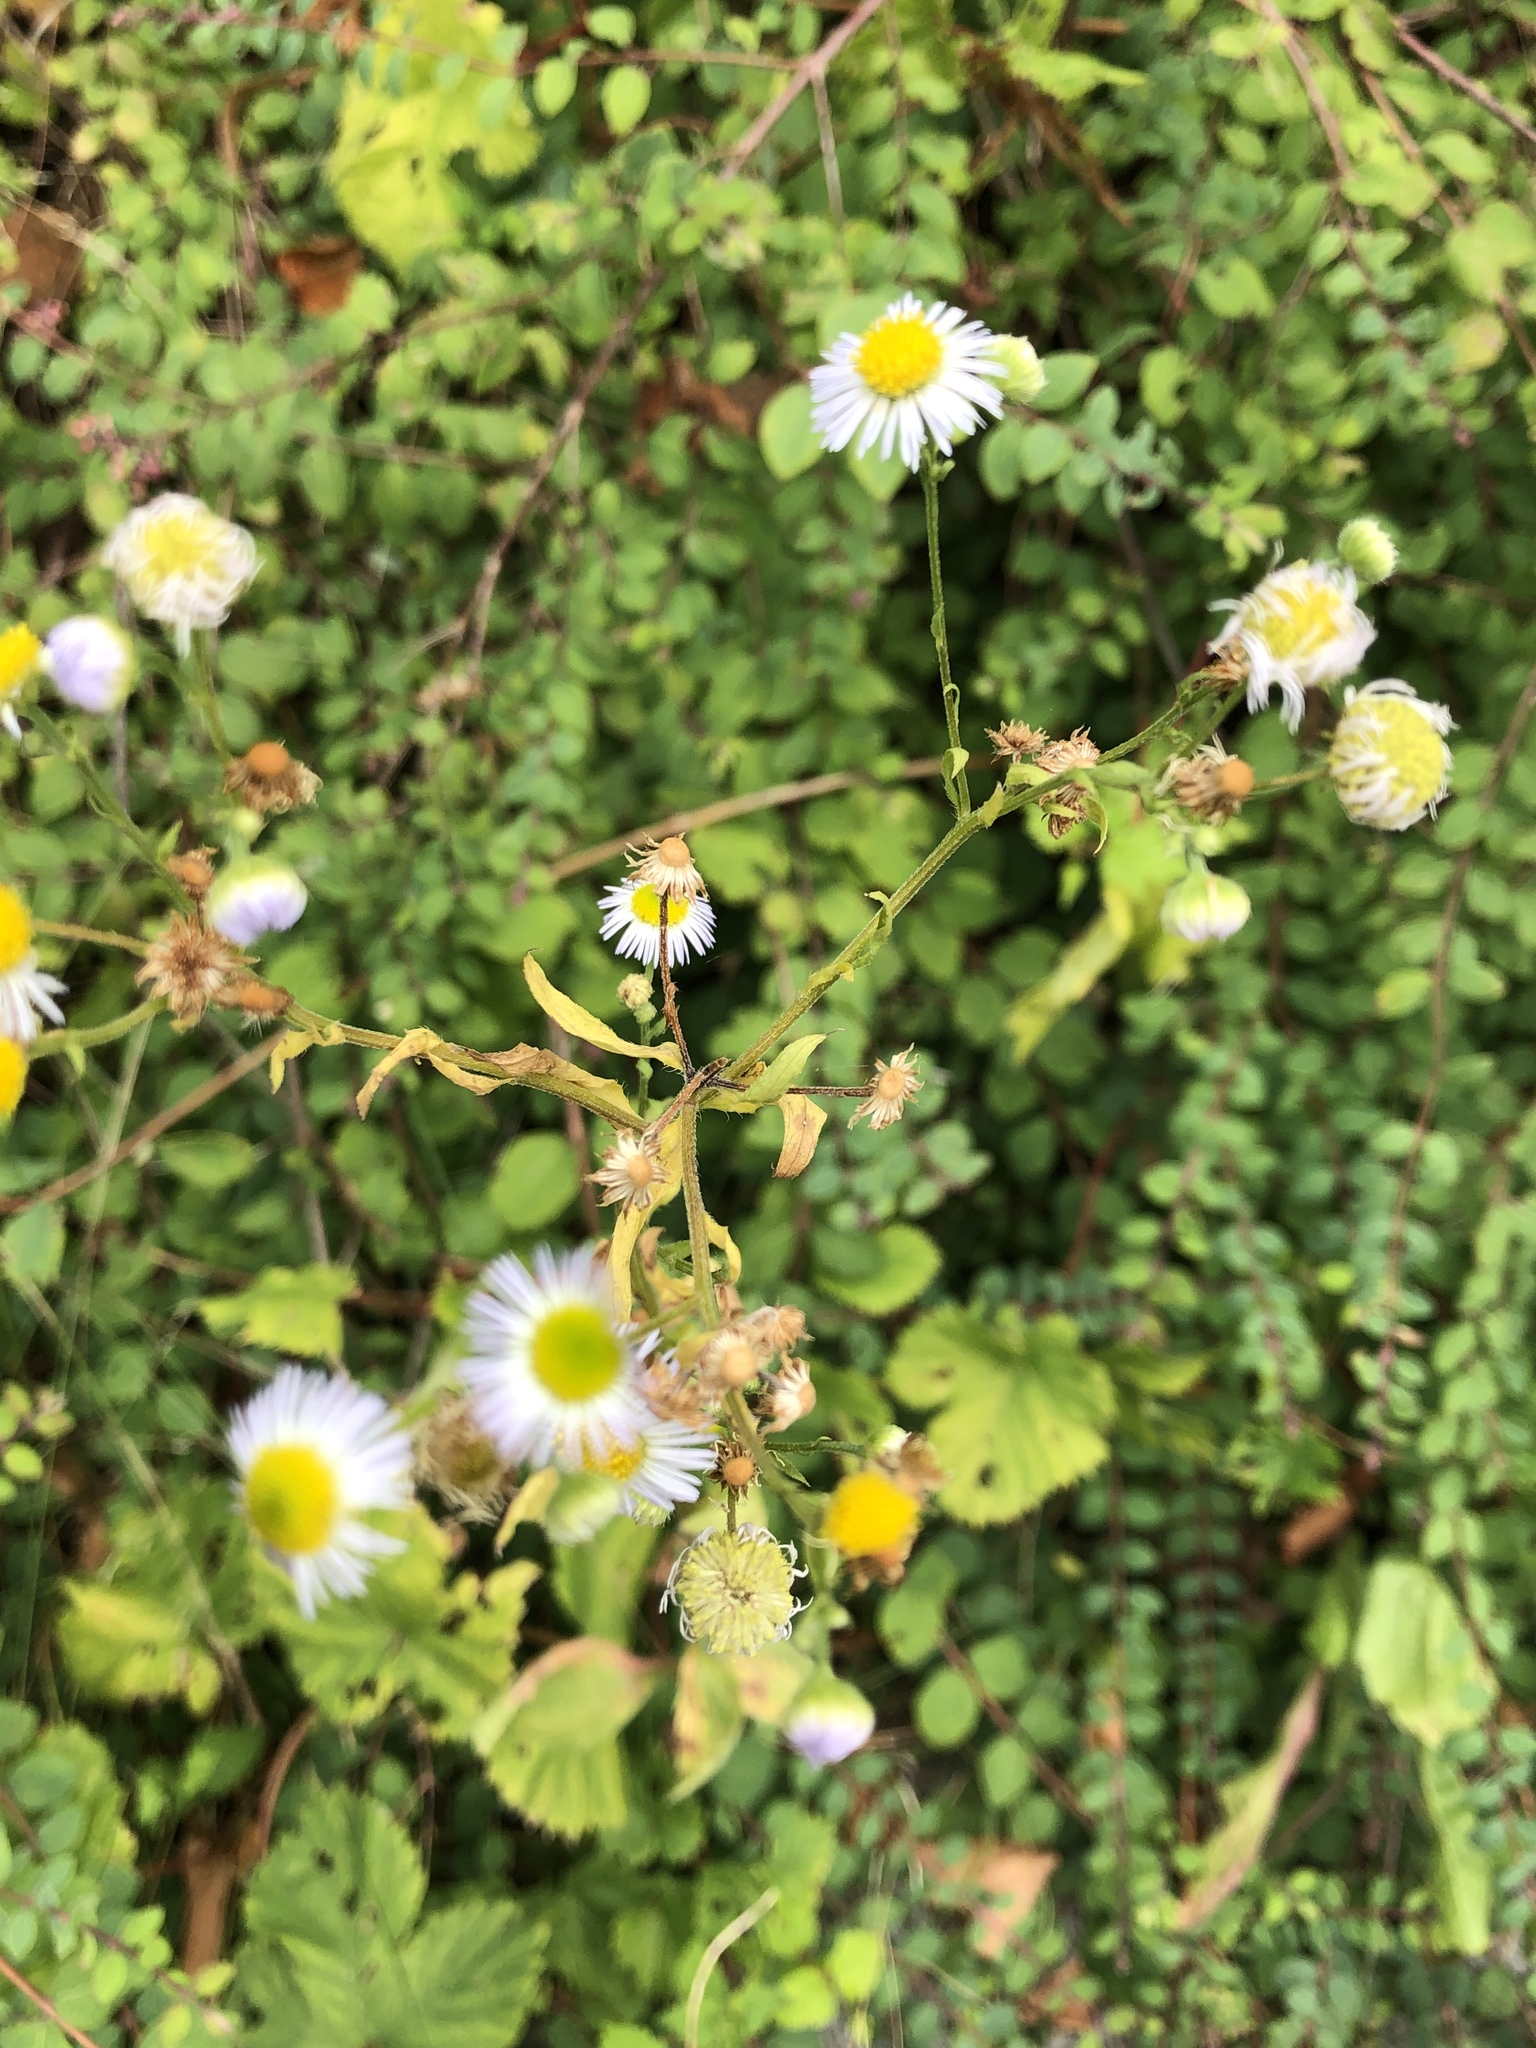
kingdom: Plantae
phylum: Tracheophyta
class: Magnoliopsida
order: Asterales
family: Asteraceae
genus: Erigeron
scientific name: Erigeron annuus
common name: Tall fleabane
